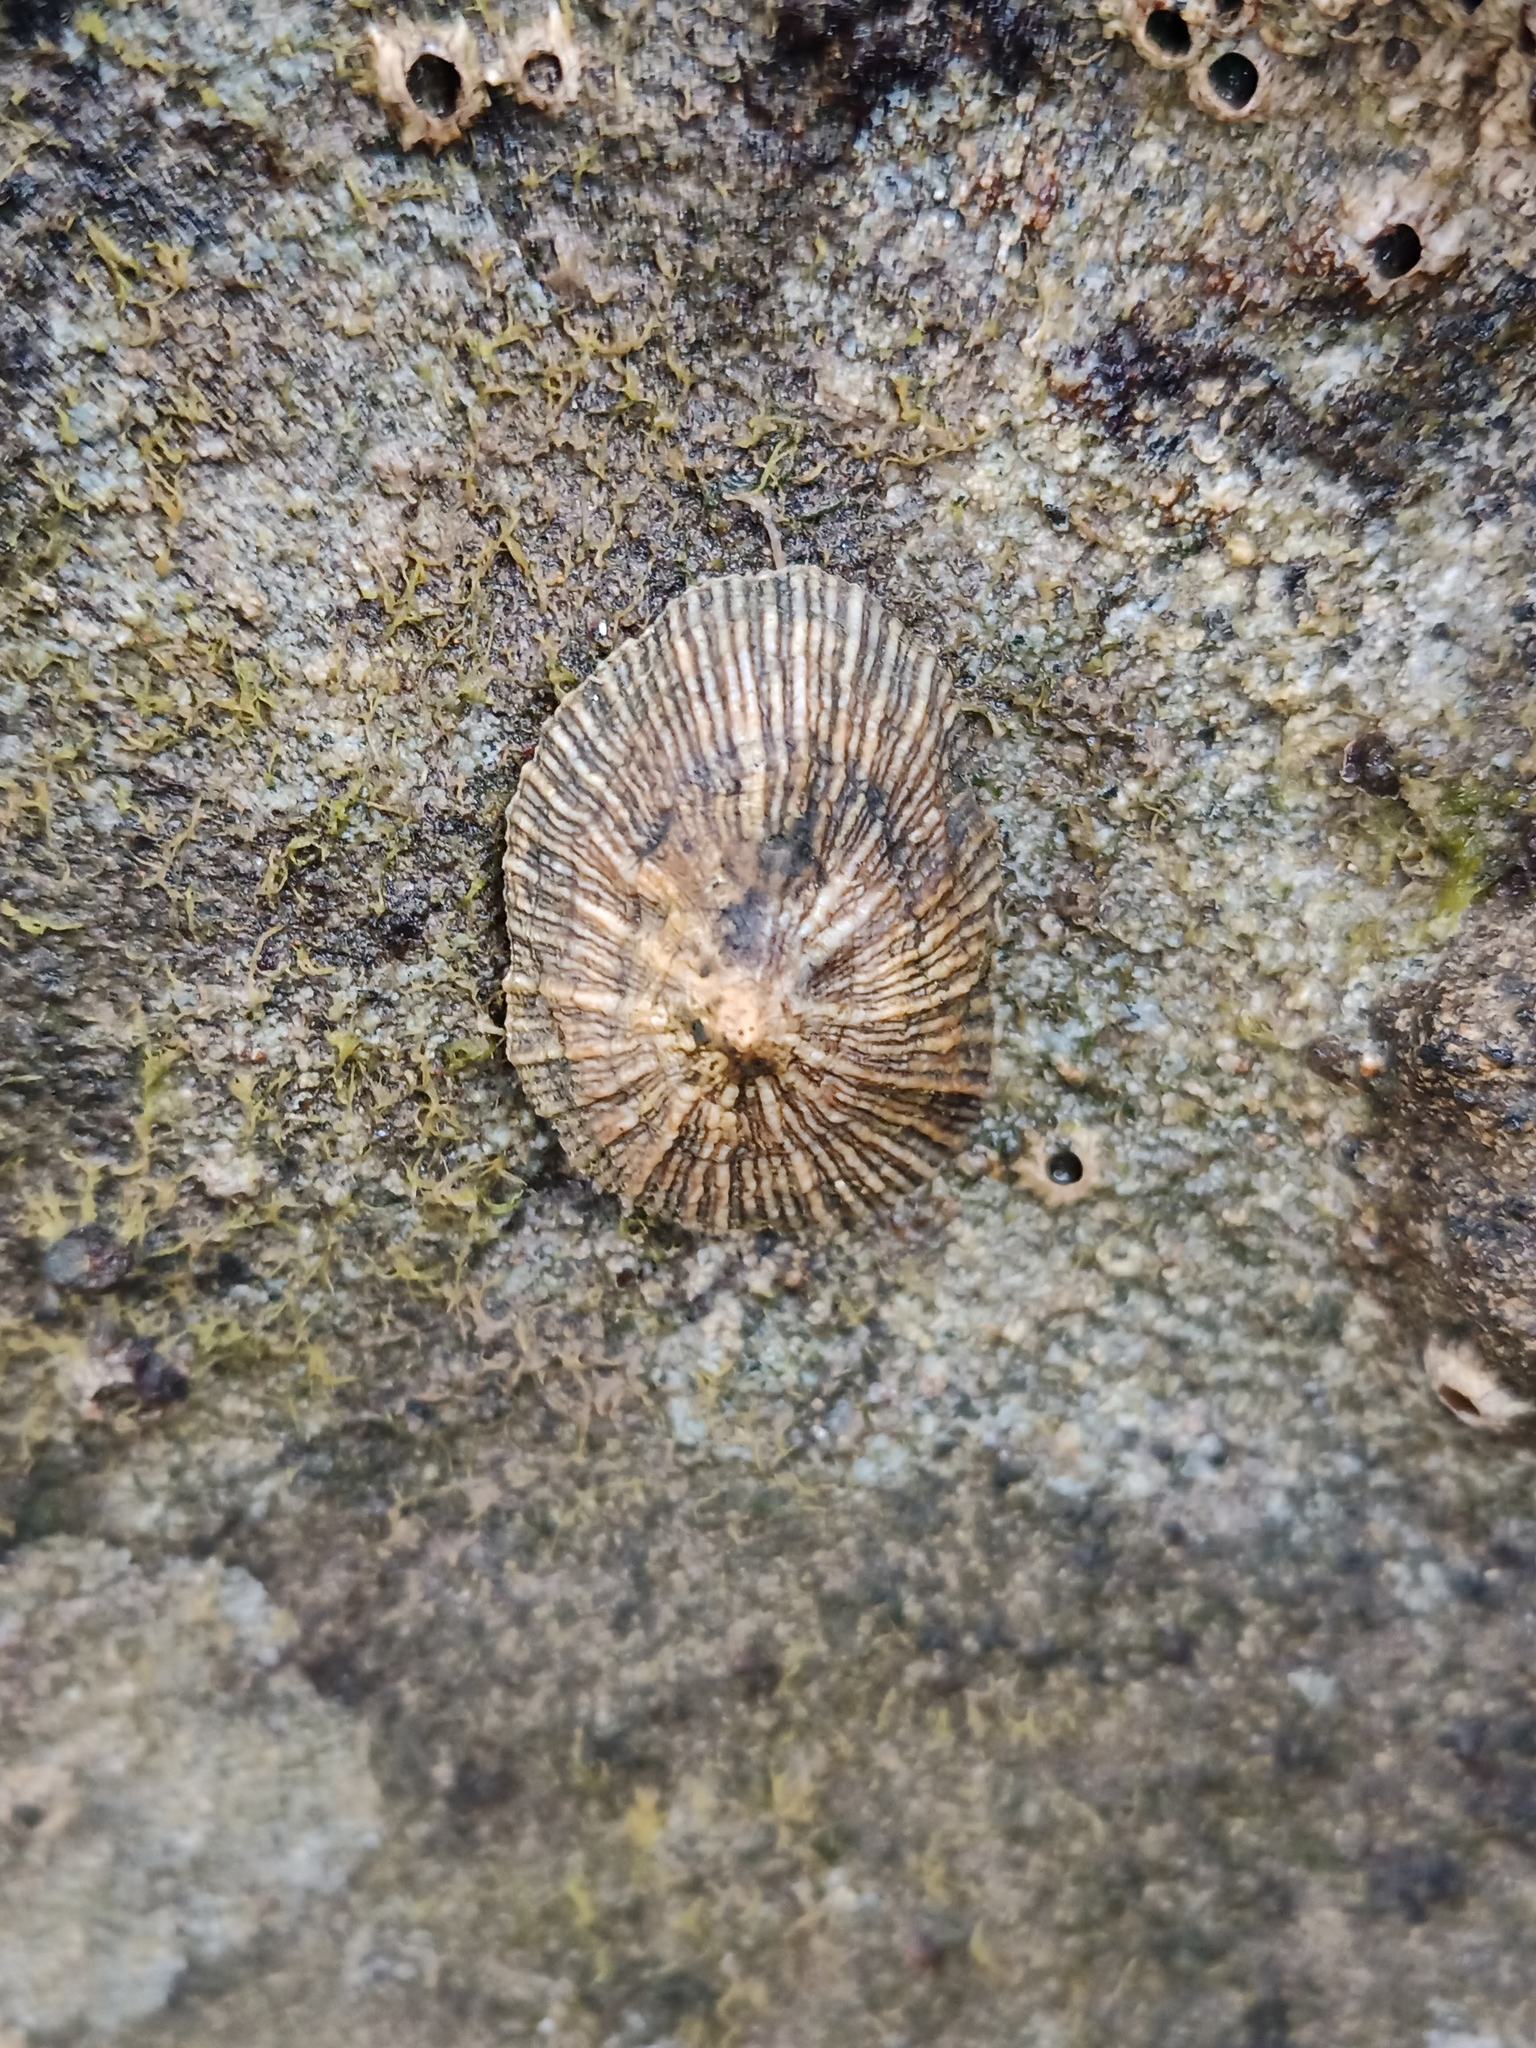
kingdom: Animalia
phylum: Mollusca
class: Gastropoda
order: Siphonariida
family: Siphonariidae
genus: Siphonaria
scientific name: Siphonaria pectinata
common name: Striped false limpet
